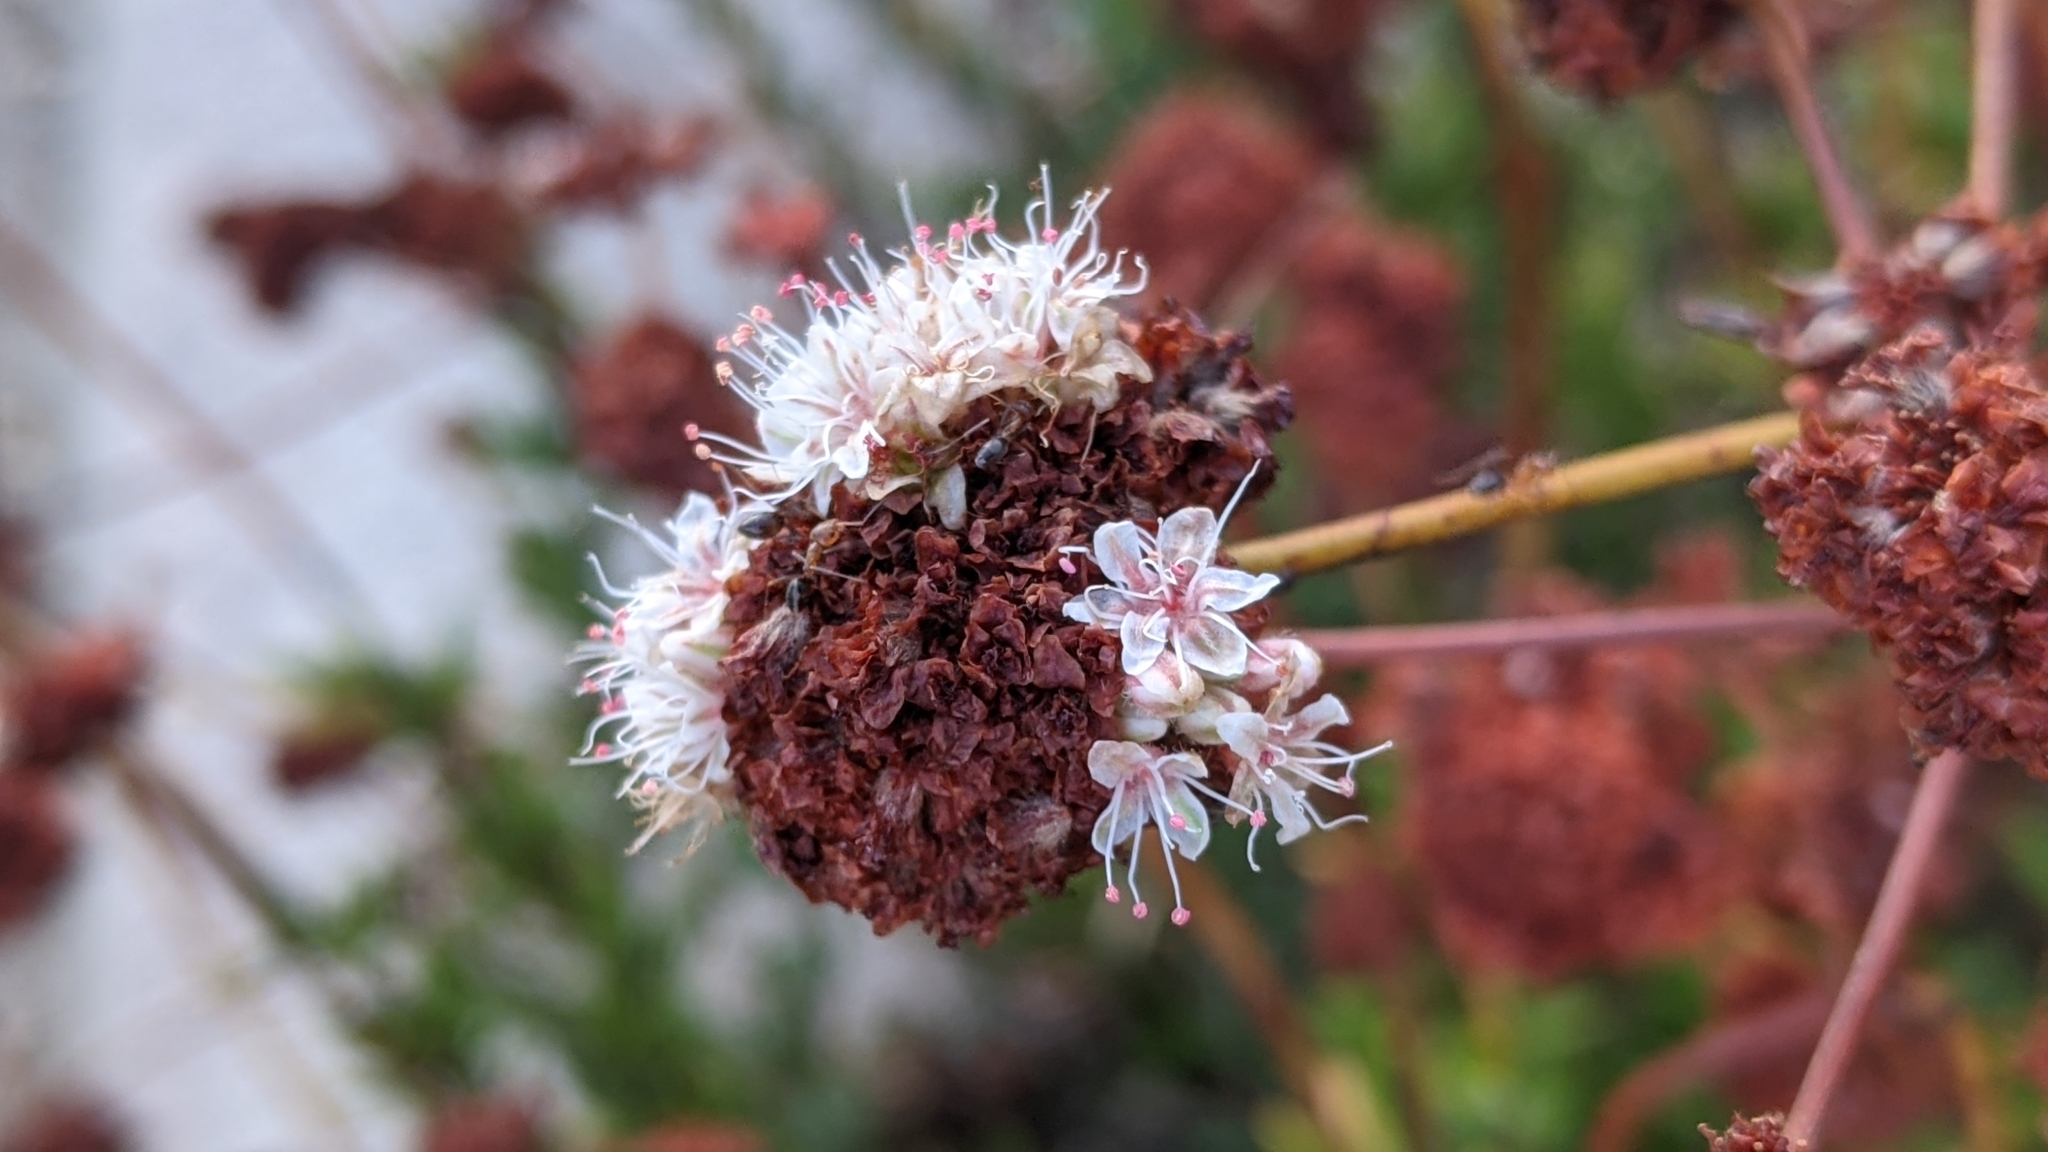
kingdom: Plantae
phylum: Tracheophyta
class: Magnoliopsida
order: Caryophyllales
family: Polygonaceae
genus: Eriogonum
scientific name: Eriogonum fasciculatum
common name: California wild buckwheat
